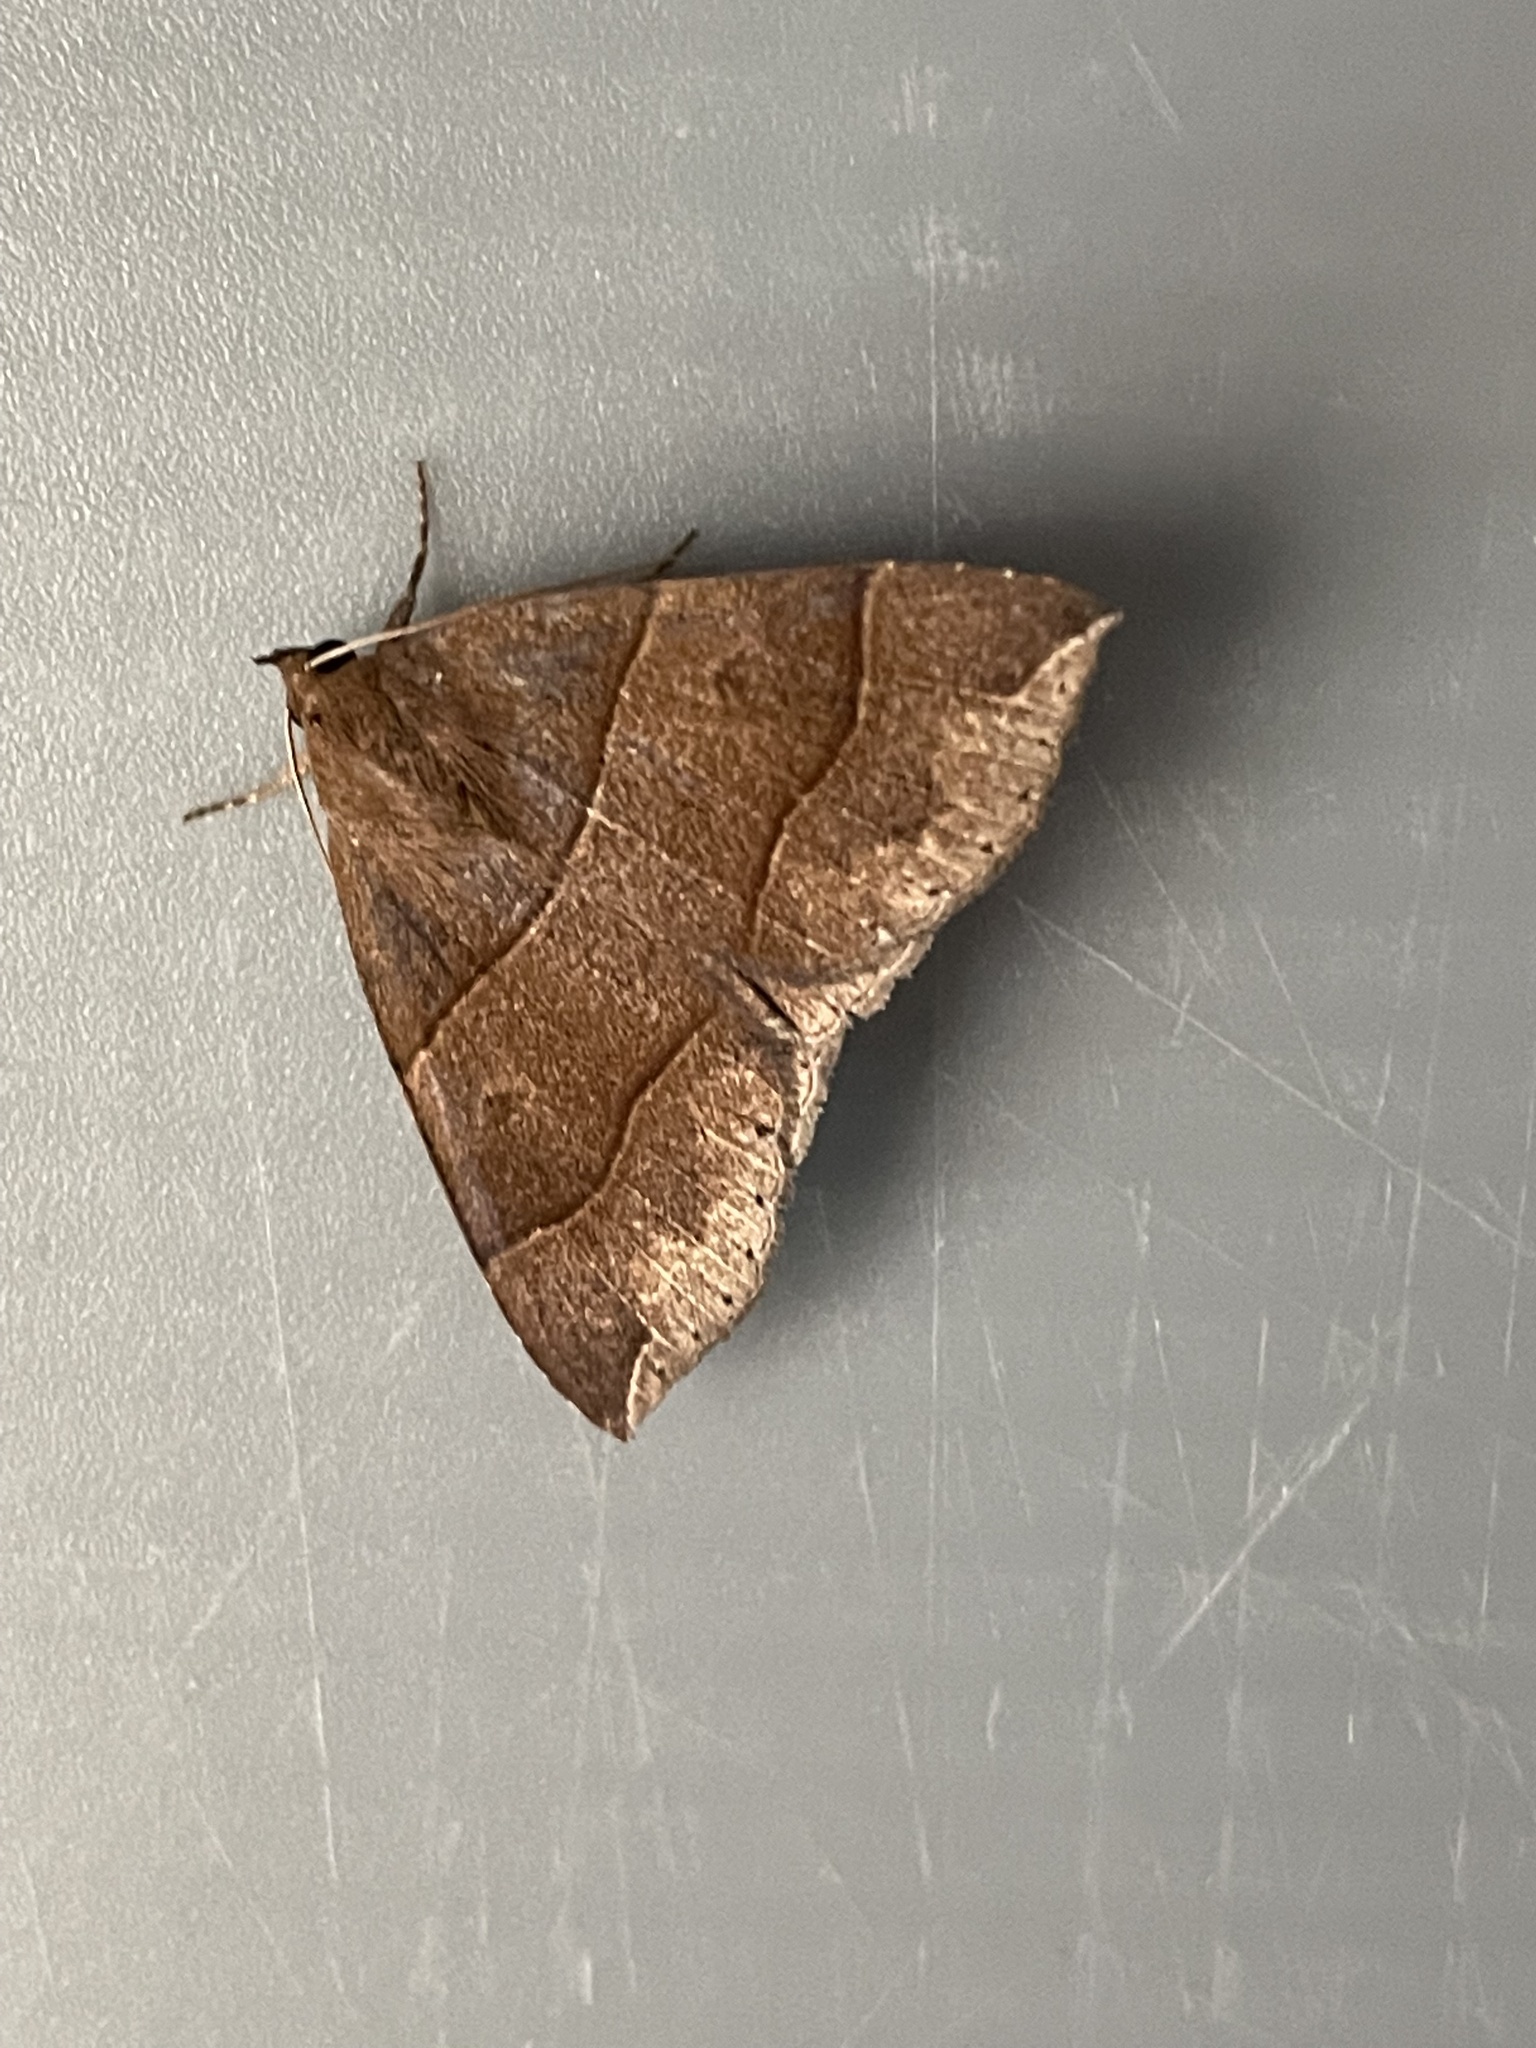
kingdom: Animalia
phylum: Arthropoda
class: Insecta
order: Lepidoptera
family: Erebidae
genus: Parallelia
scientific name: Parallelia bistriaris
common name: Maple looper moth
